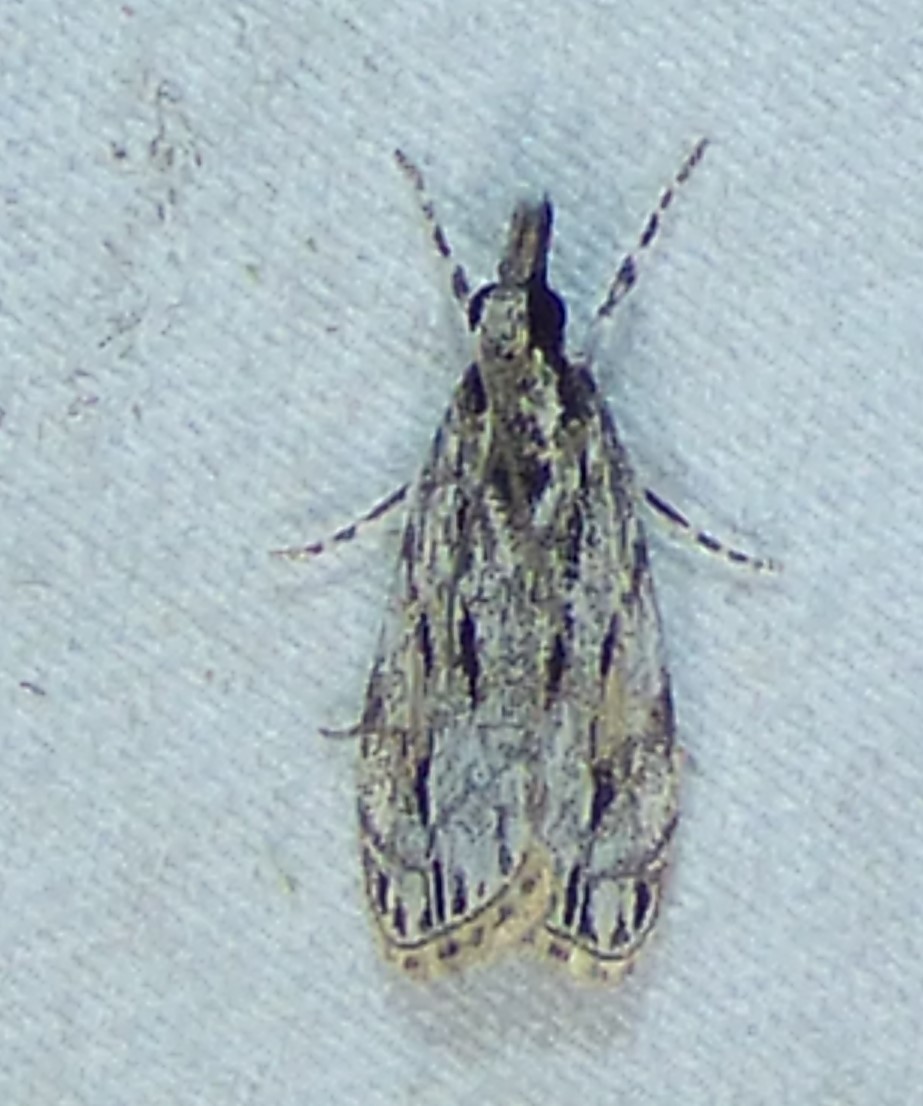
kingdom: Animalia
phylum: Arthropoda
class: Insecta
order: Lepidoptera
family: Crambidae
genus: Eudonia
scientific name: Eudonia strigalis
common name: Striped eudonia moth
